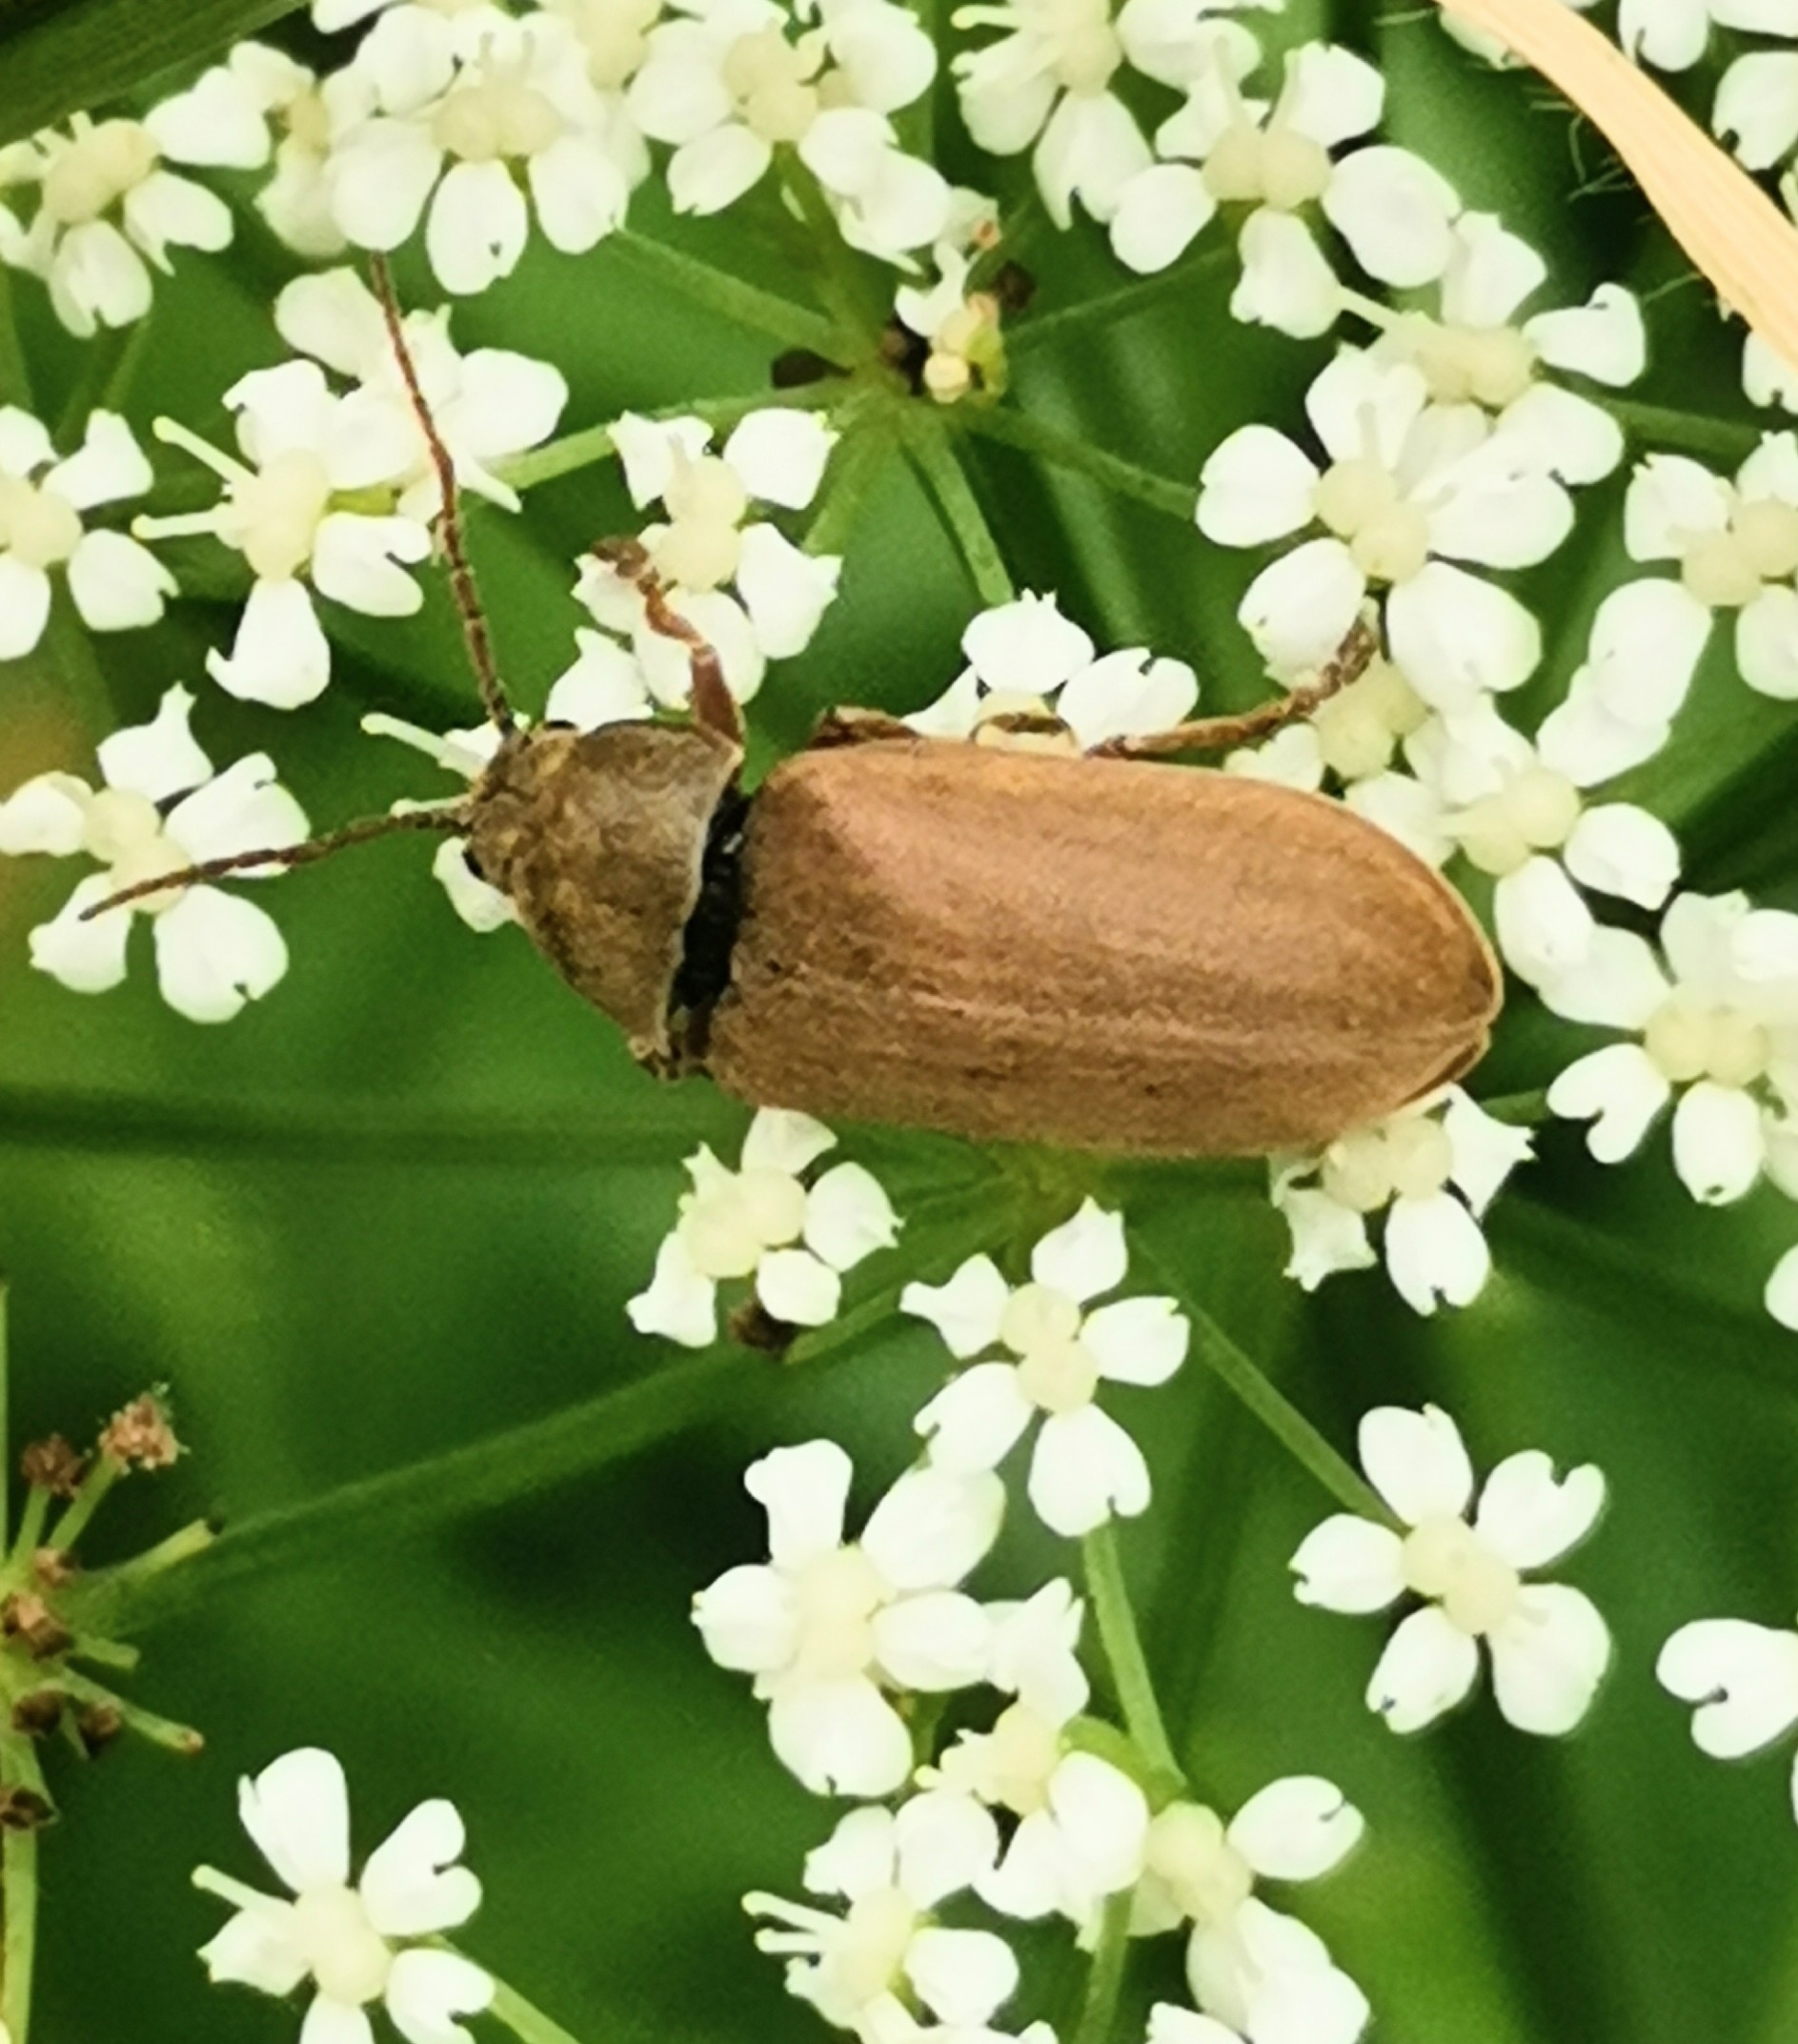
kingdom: Animalia
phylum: Arthropoda
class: Insecta
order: Coleoptera
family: Dascillidae
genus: Dascillus
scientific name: Dascillus cervinus
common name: Orchid beetle
